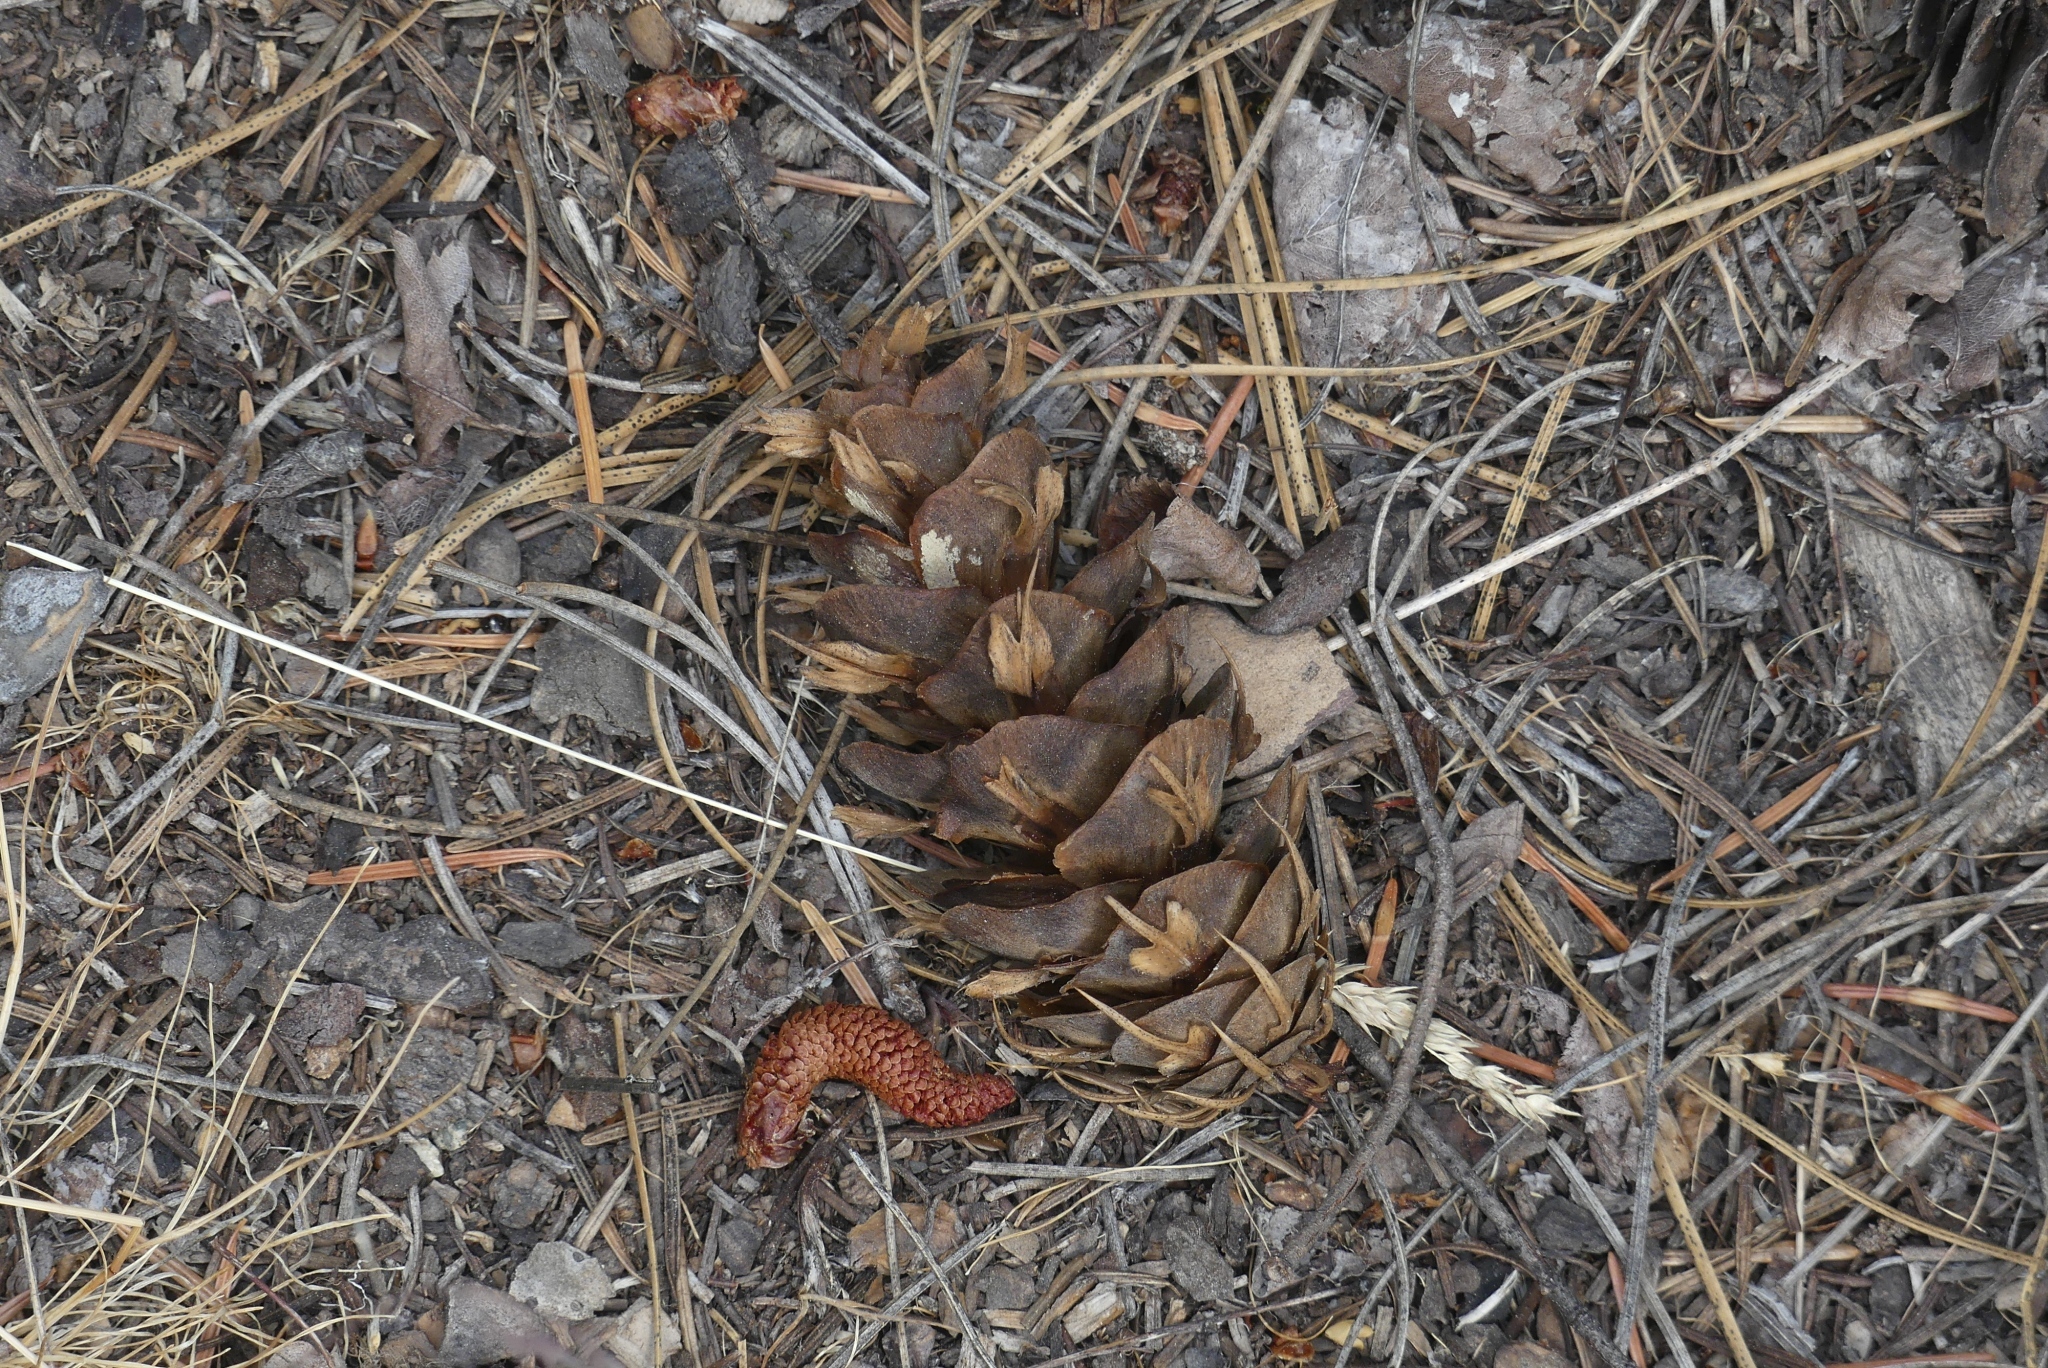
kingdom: Plantae
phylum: Tracheophyta
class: Pinopsida
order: Pinales
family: Pinaceae
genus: Pseudotsuga
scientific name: Pseudotsuga menziesii
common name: Douglas fir
